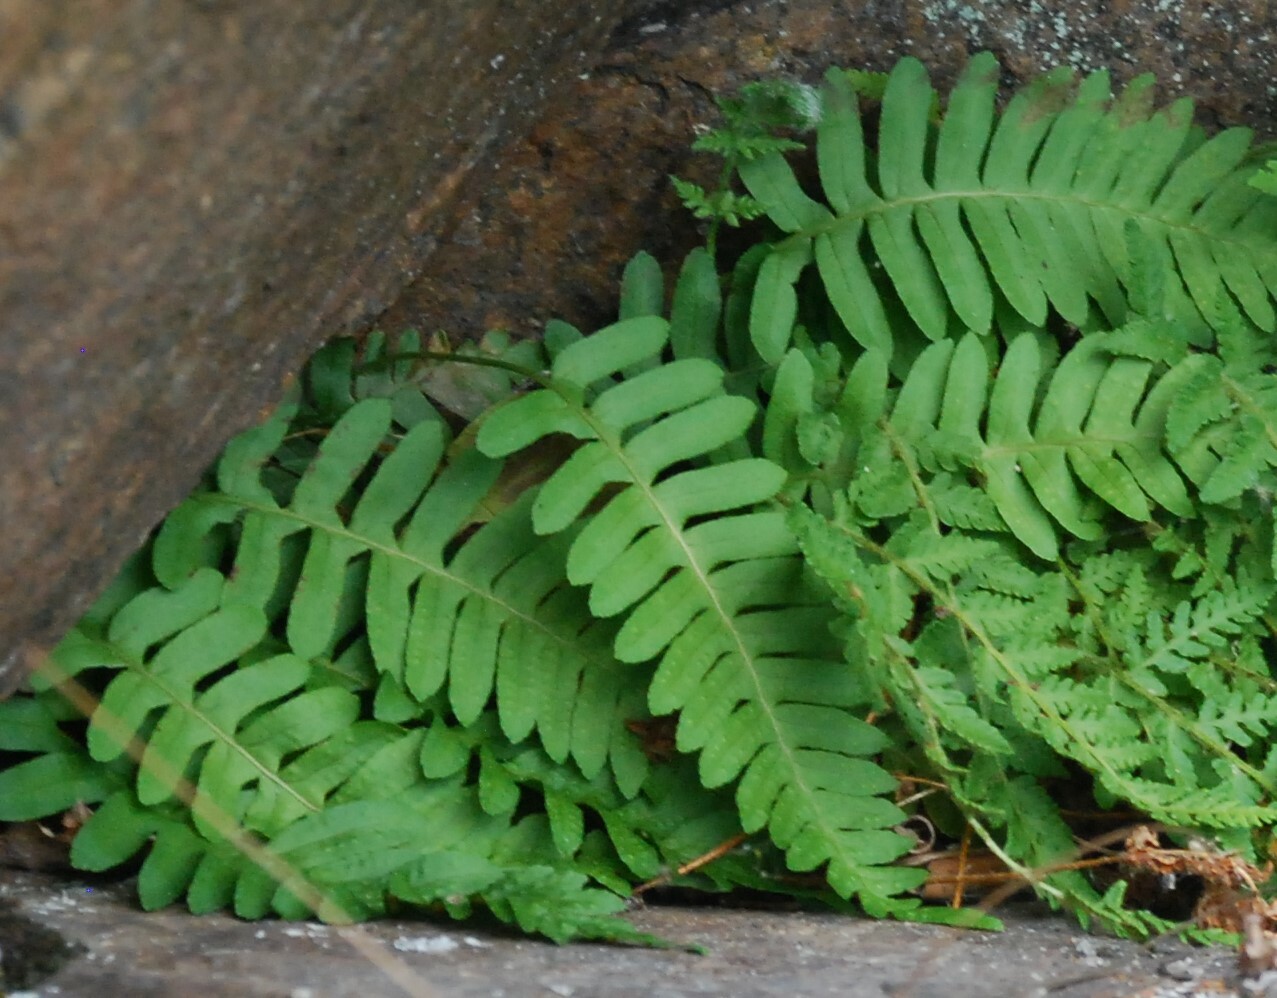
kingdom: Plantae
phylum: Tracheophyta
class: Polypodiopsida
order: Polypodiales
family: Polypodiaceae
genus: Polypodium
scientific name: Polypodium vulgare
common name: Common polypody
